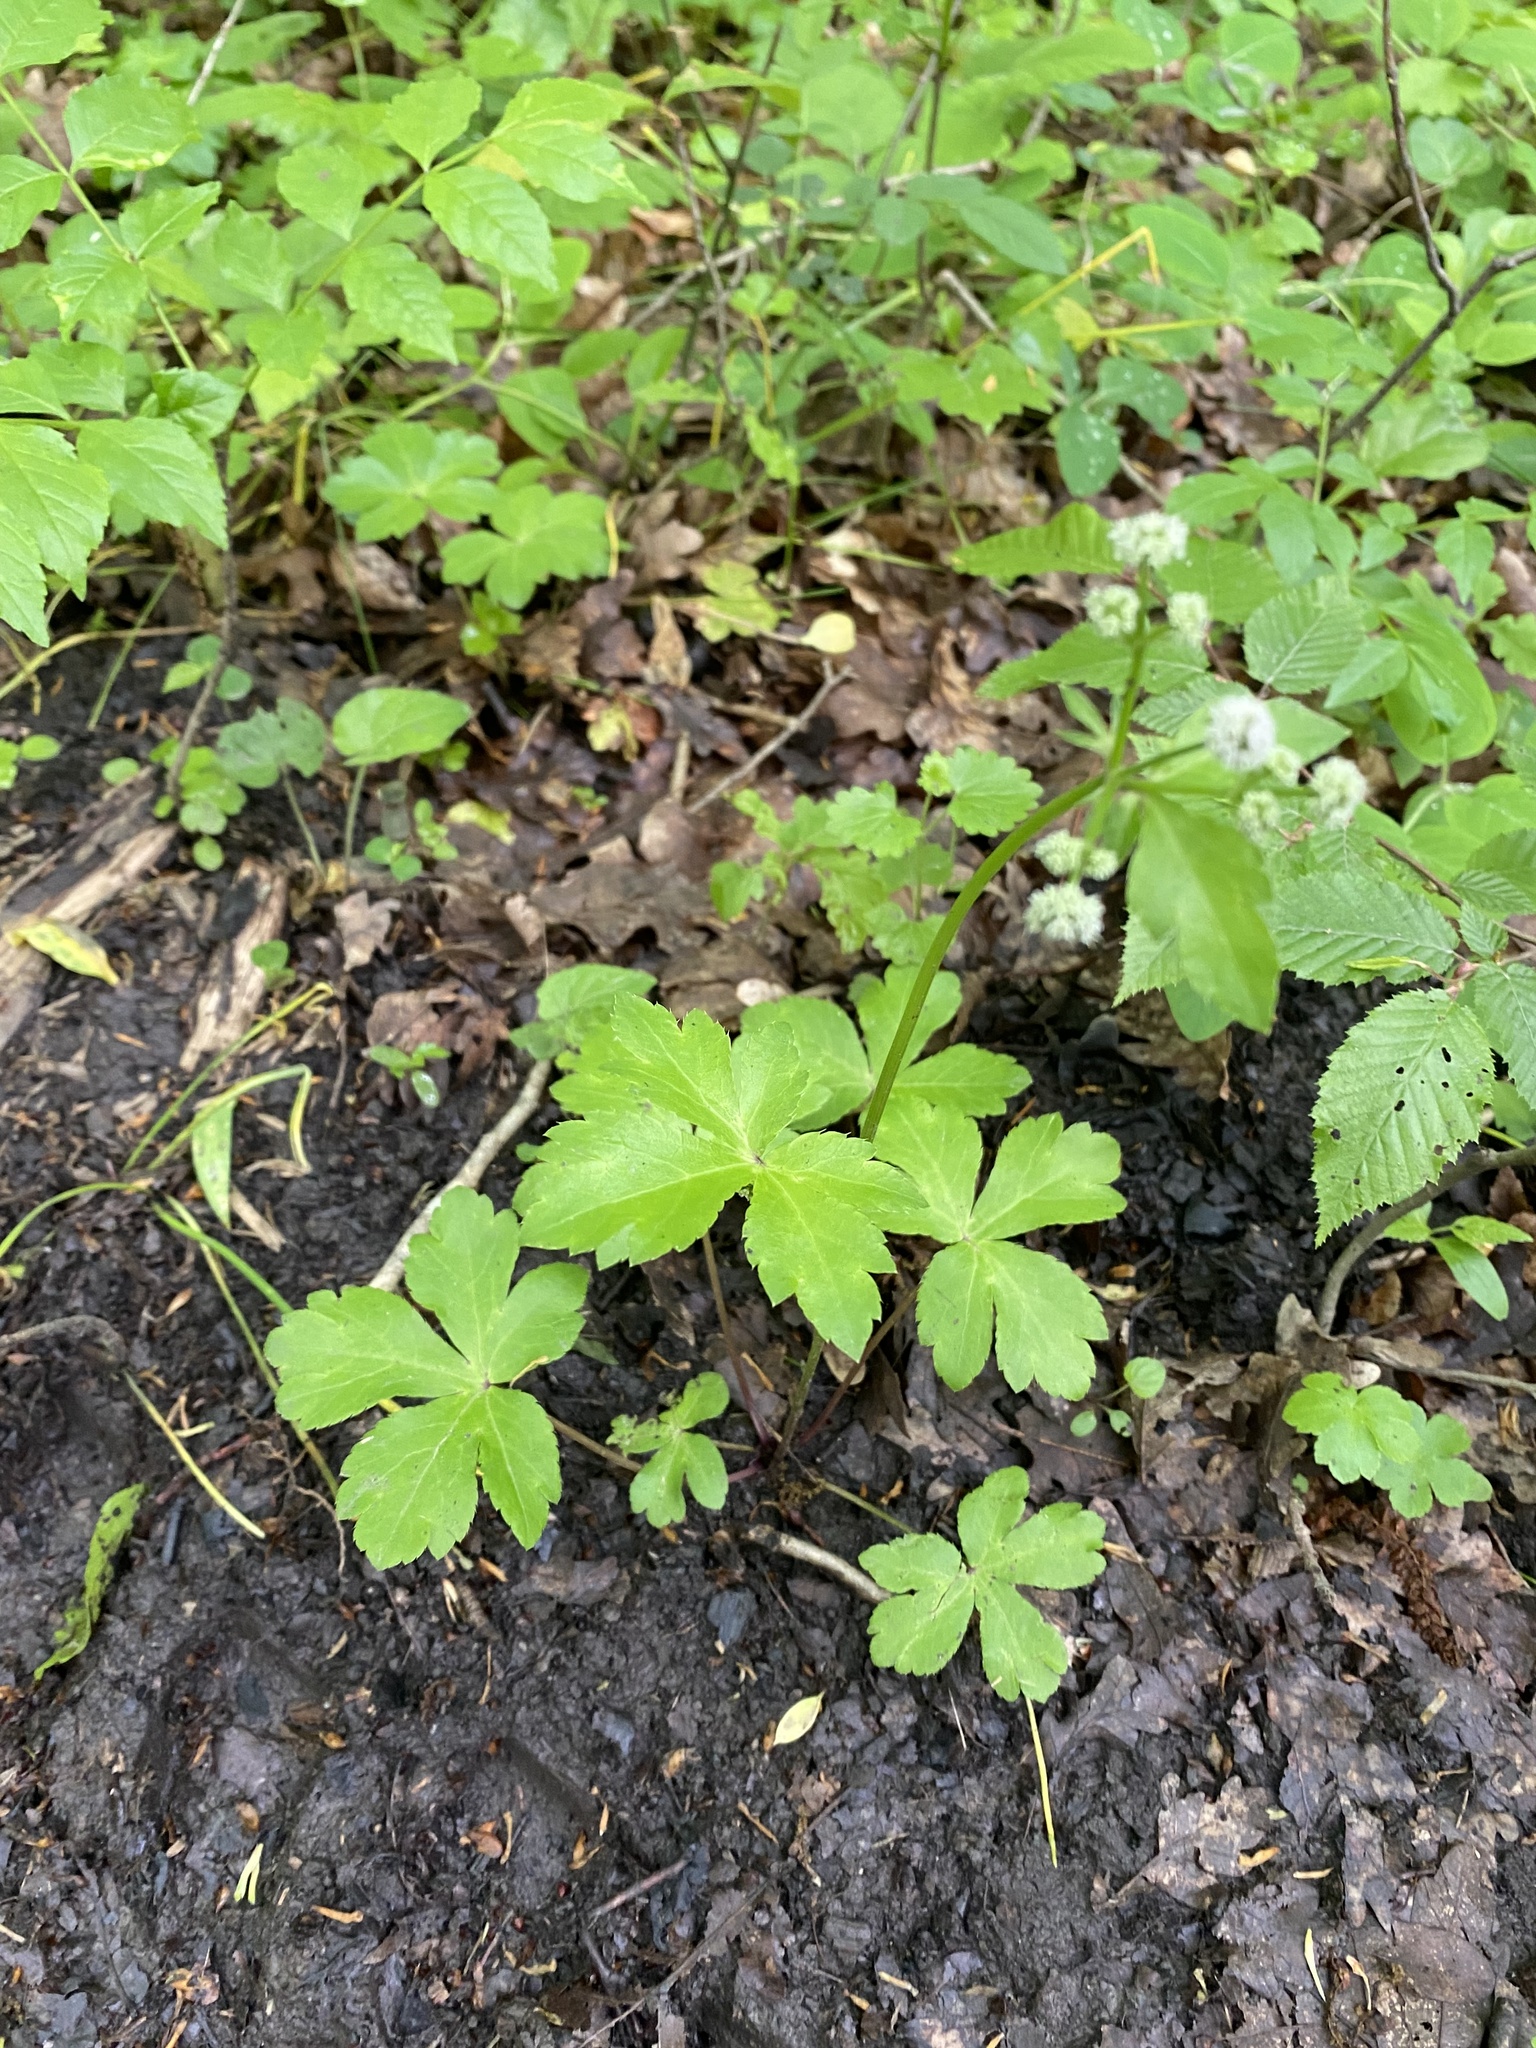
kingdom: Plantae
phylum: Tracheophyta
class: Magnoliopsida
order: Apiales
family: Apiaceae
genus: Sanicula
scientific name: Sanicula europaea
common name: Sanicle
